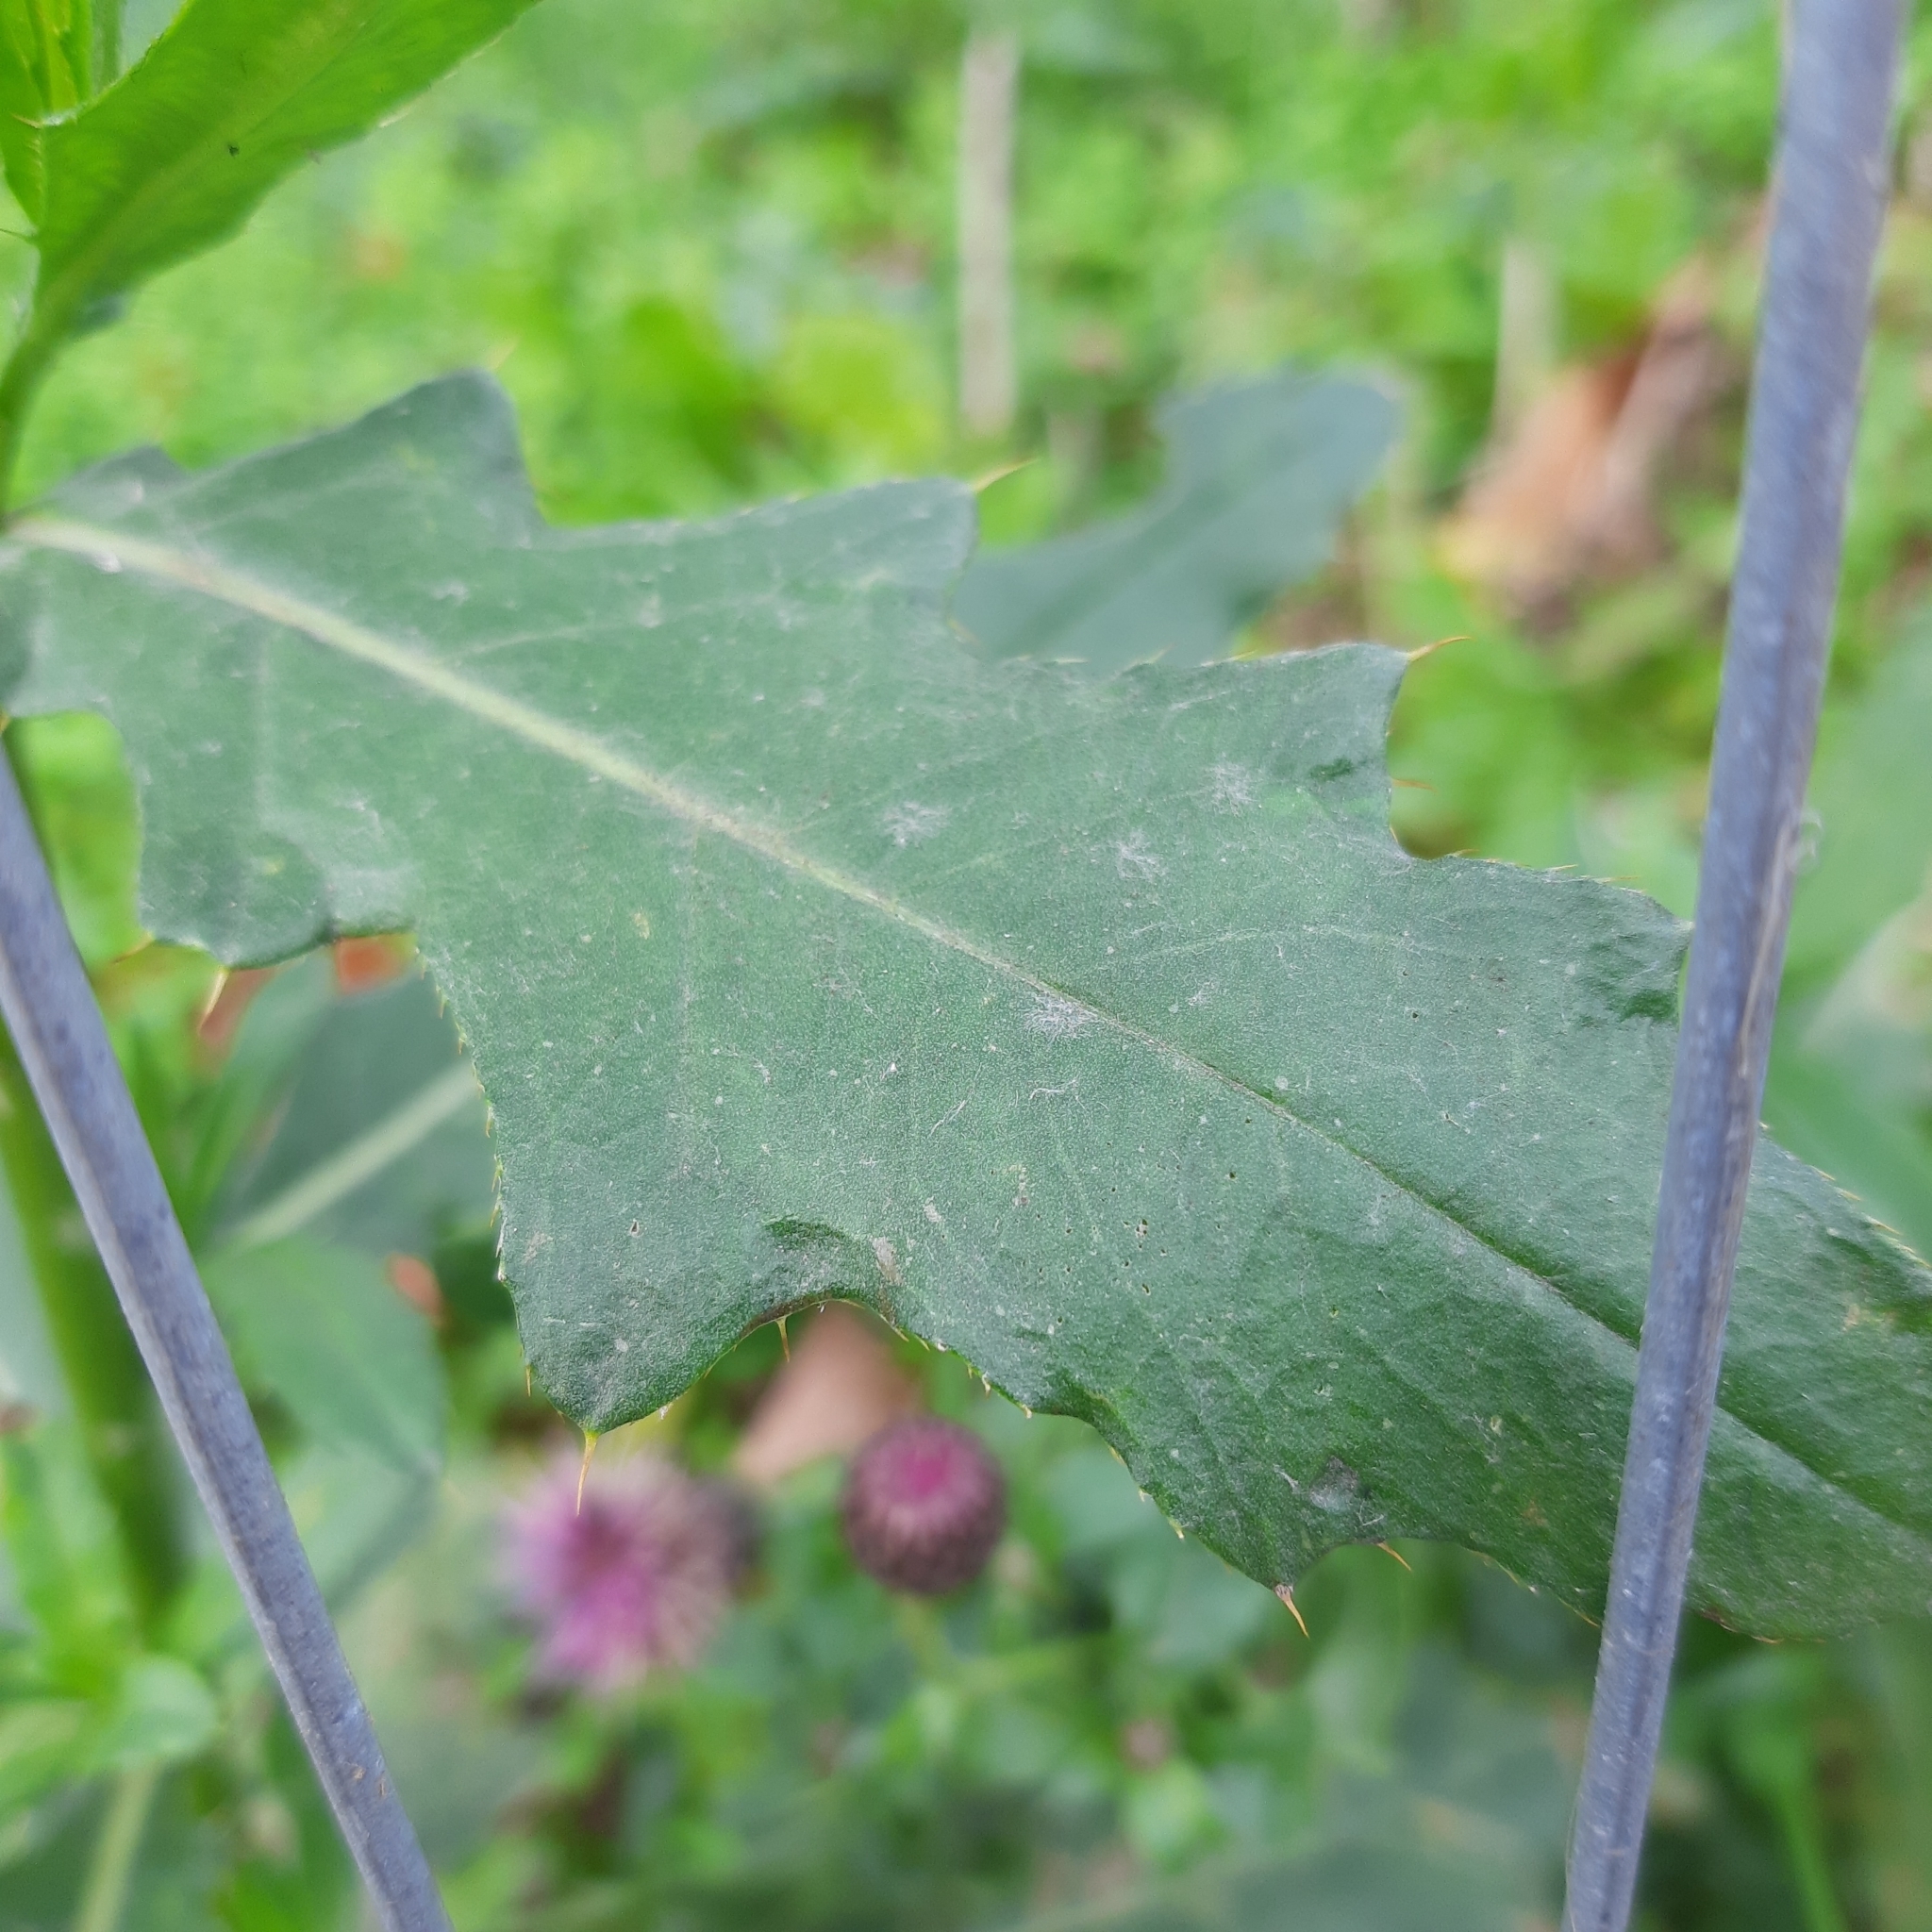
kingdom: Plantae
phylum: Tracheophyta
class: Magnoliopsida
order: Asterales
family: Asteraceae
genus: Cirsium
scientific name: Cirsium arvense
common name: Creeping thistle
